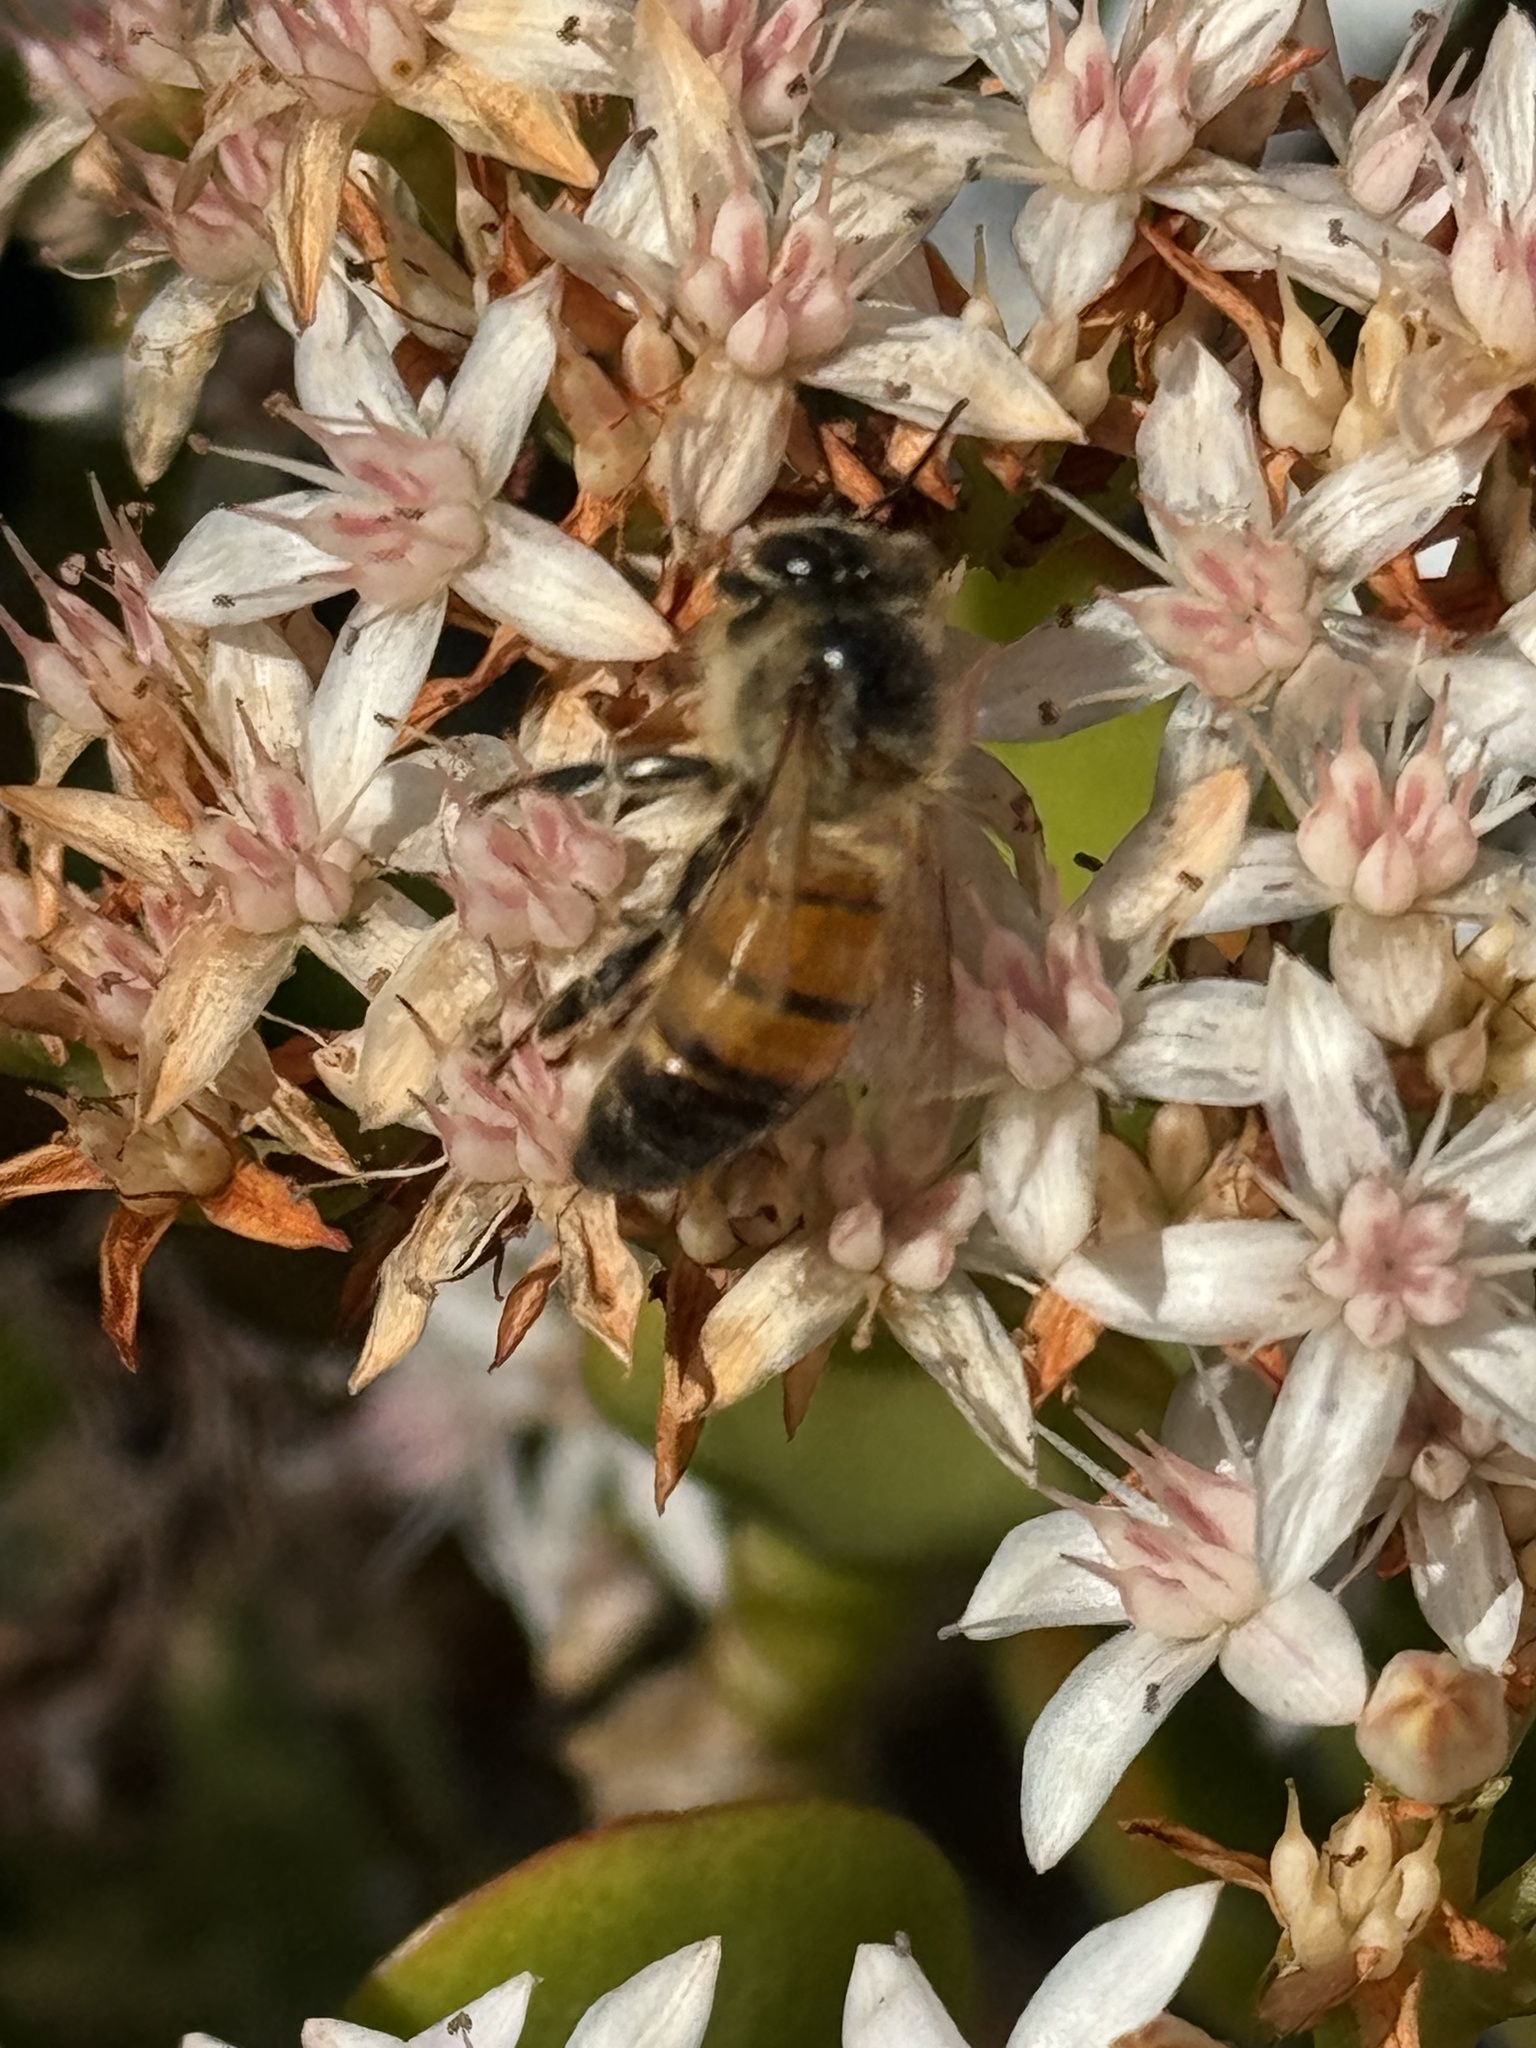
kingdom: Animalia
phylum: Arthropoda
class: Insecta
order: Hymenoptera
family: Apidae
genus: Apis
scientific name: Apis mellifera
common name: Honey bee
